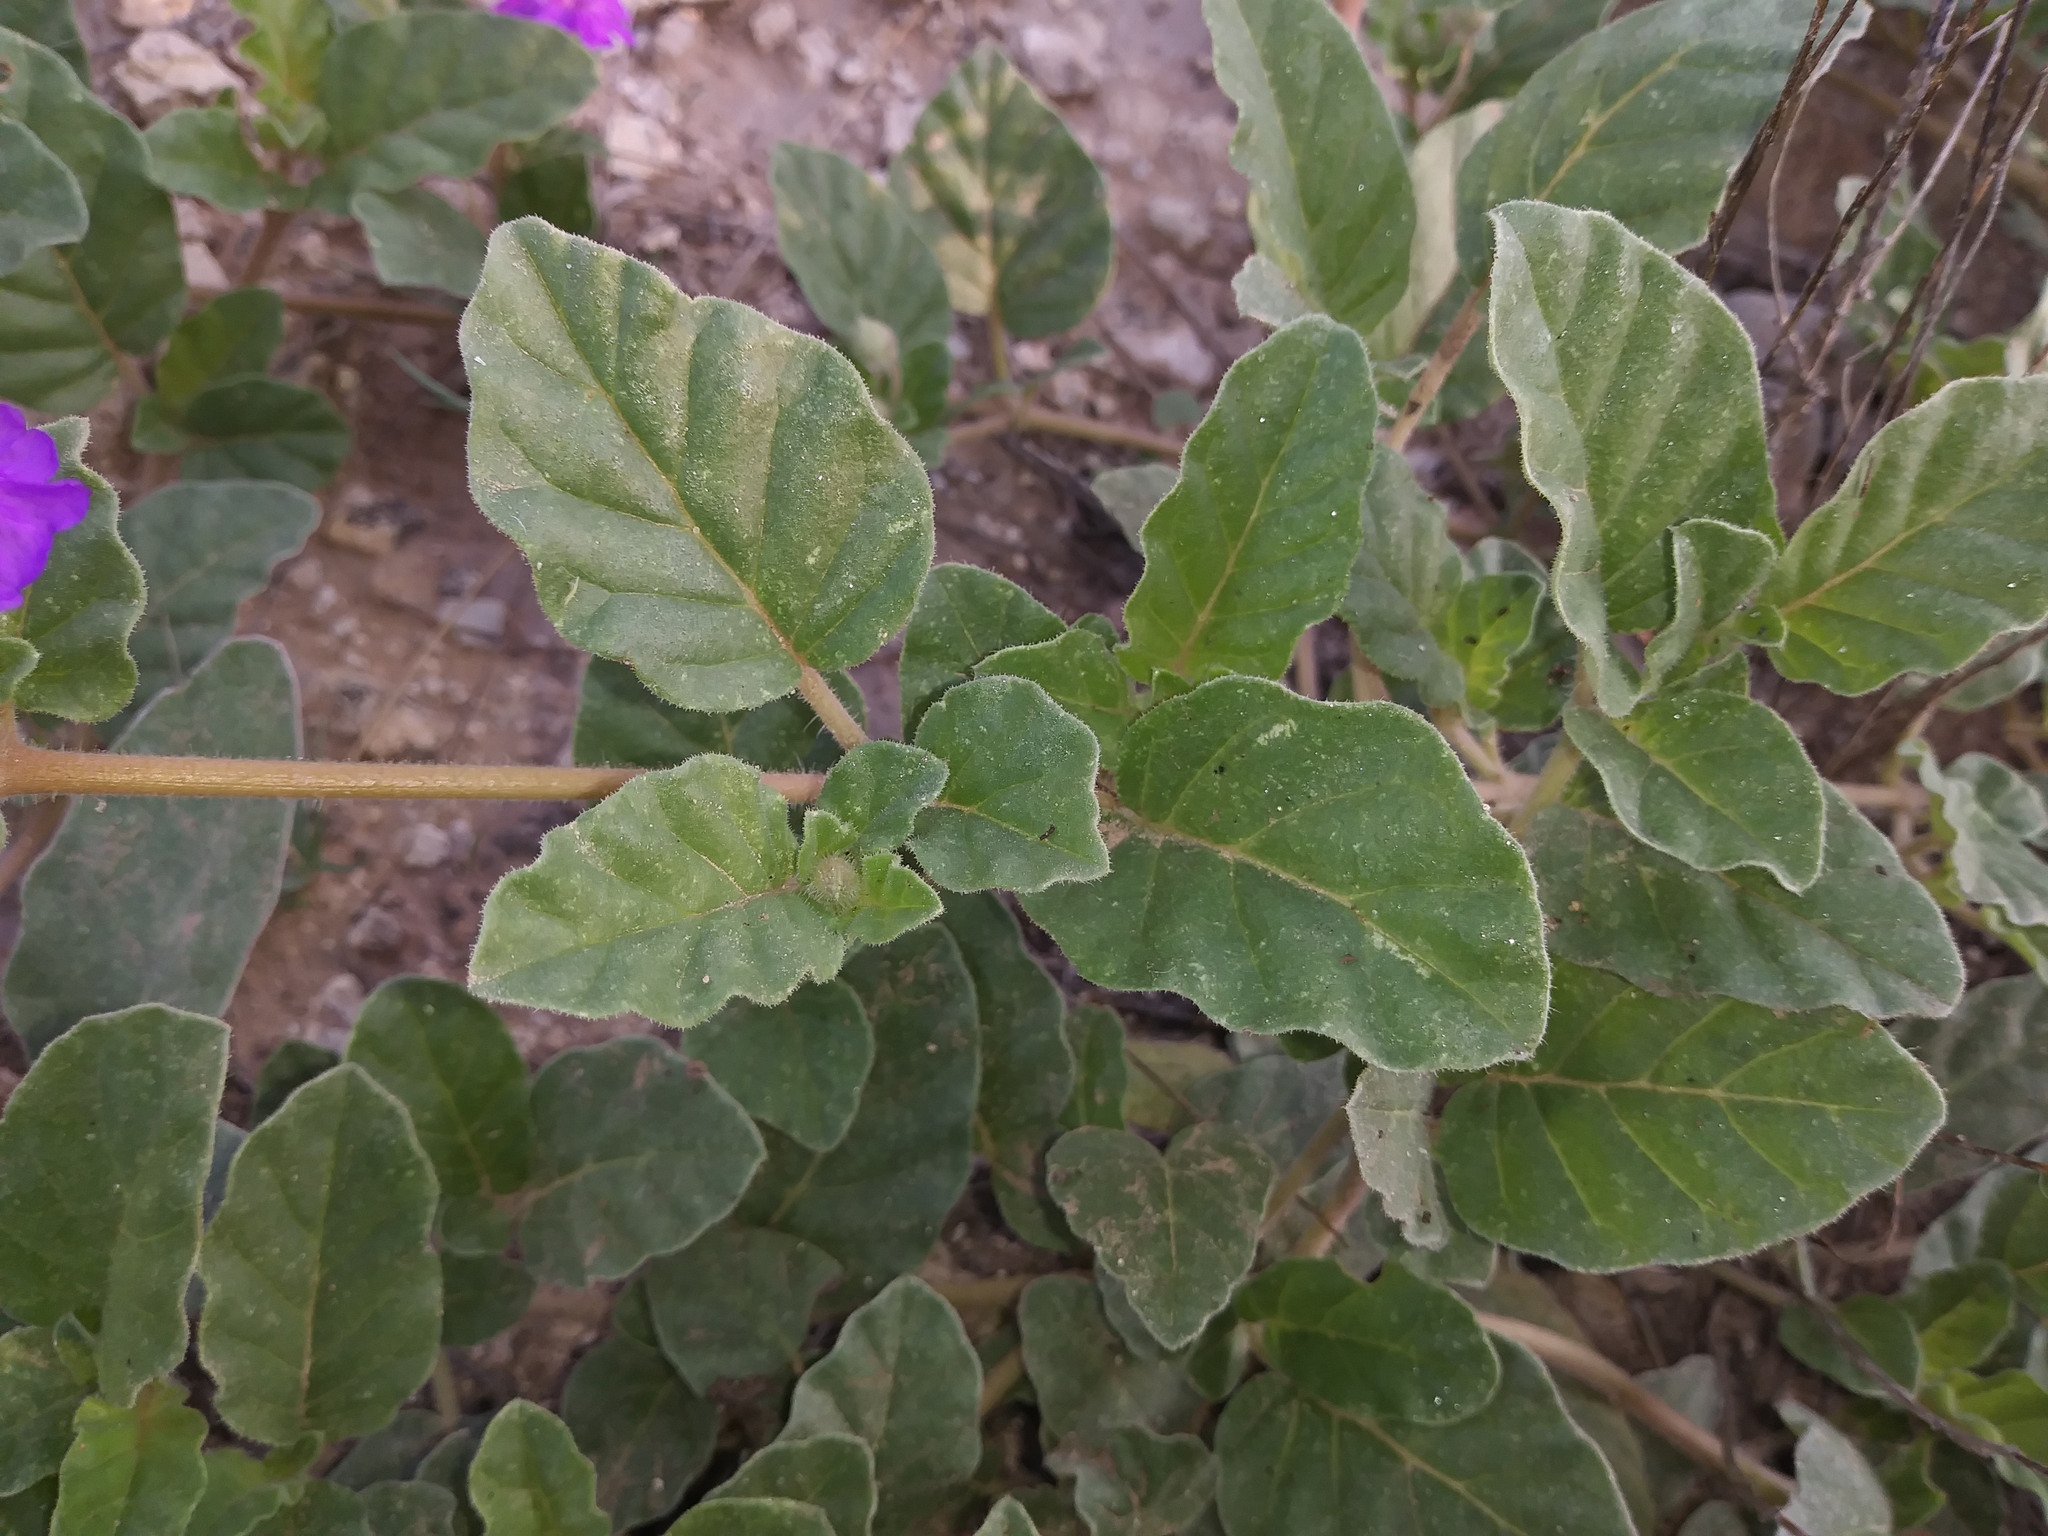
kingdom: Plantae
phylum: Tracheophyta
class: Magnoliopsida
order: Caryophyllales
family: Nyctaginaceae
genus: Allionia
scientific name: Allionia incarnata
